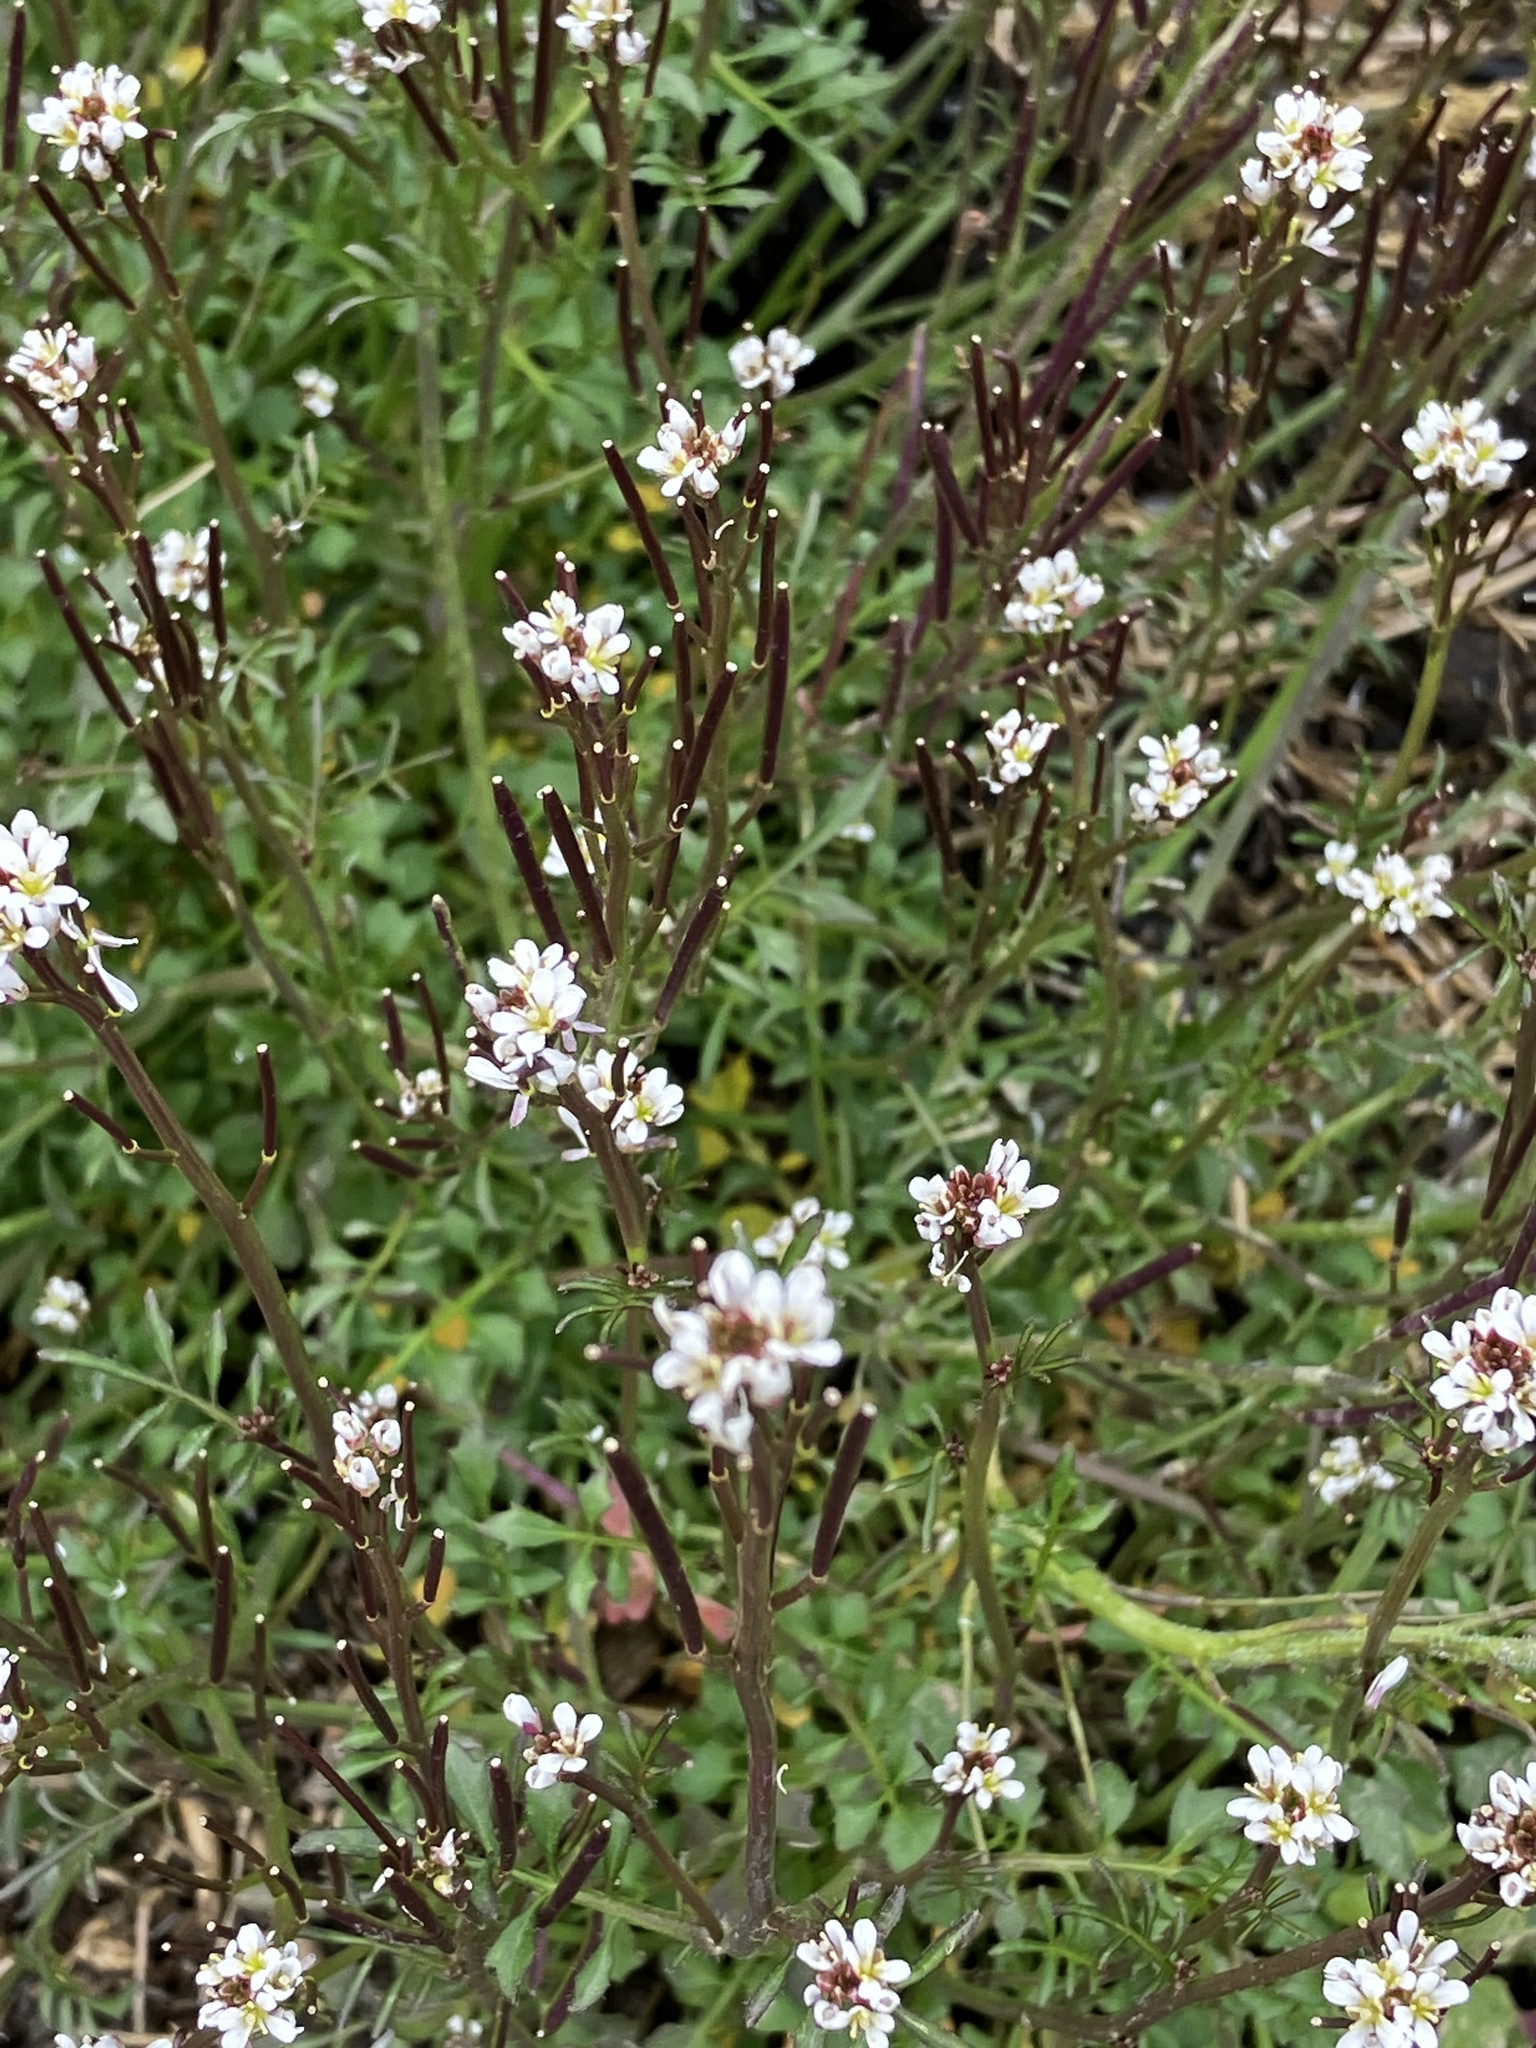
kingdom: Plantae
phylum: Tracheophyta
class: Magnoliopsida
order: Brassicales
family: Brassicaceae
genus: Cardamine
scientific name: Cardamine hirsuta
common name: Hairy bittercress
